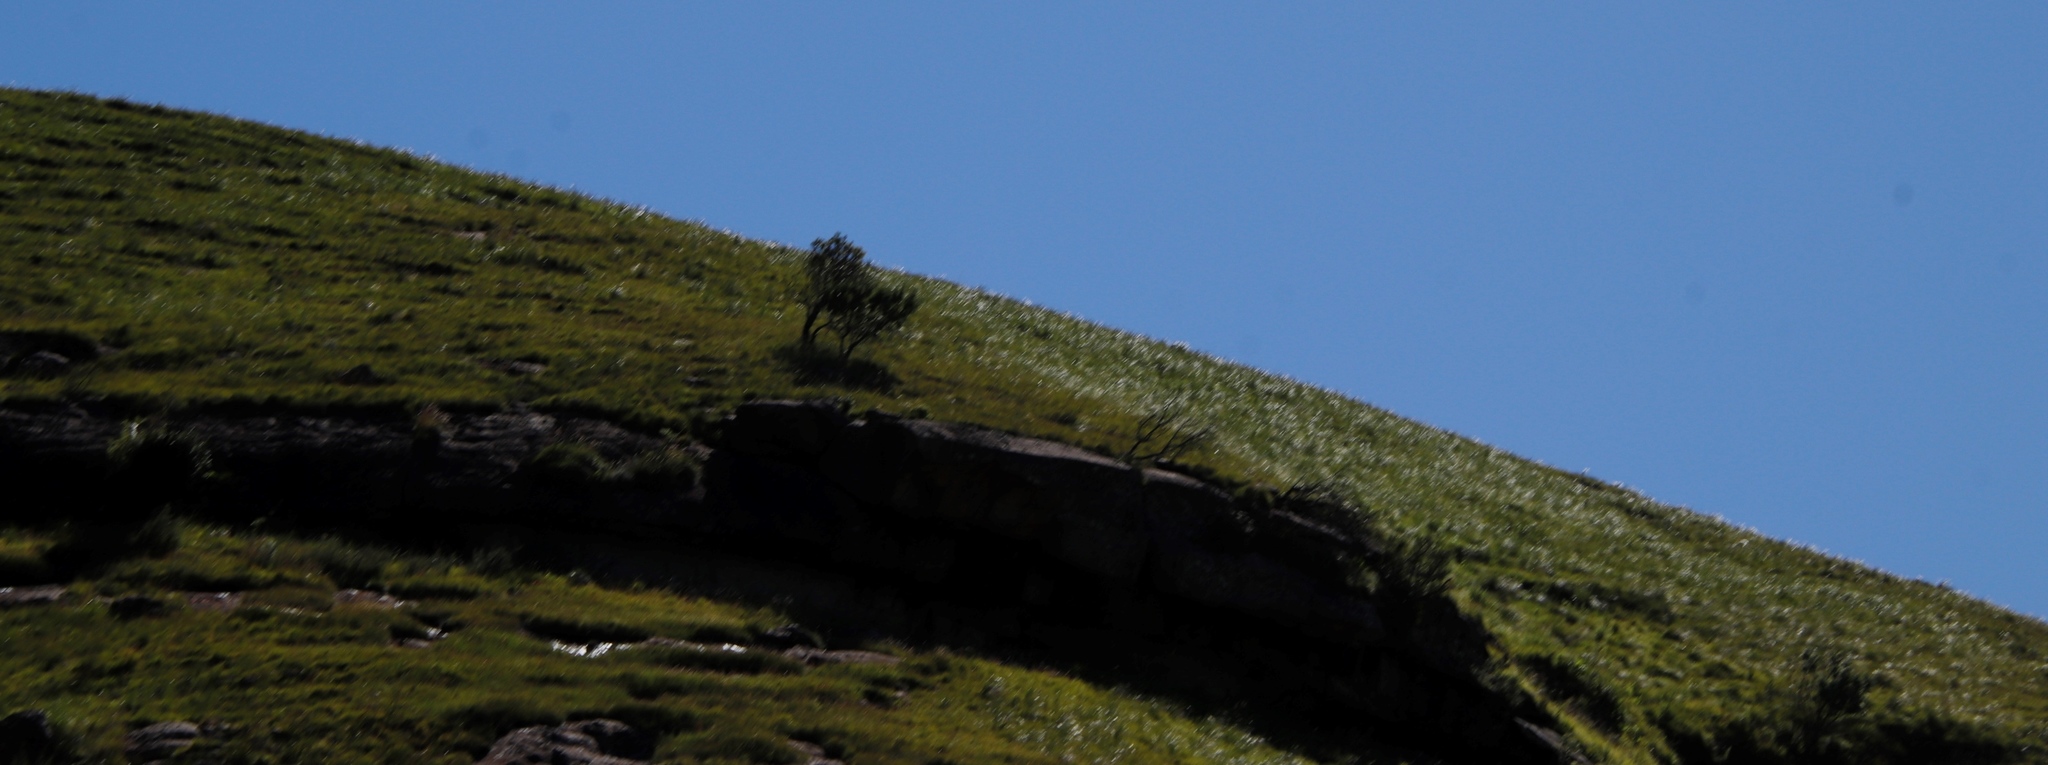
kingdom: Plantae
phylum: Tracheophyta
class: Magnoliopsida
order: Proteales
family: Proteaceae
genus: Protea
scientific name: Protea roupelliae
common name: Silver sugarbush
